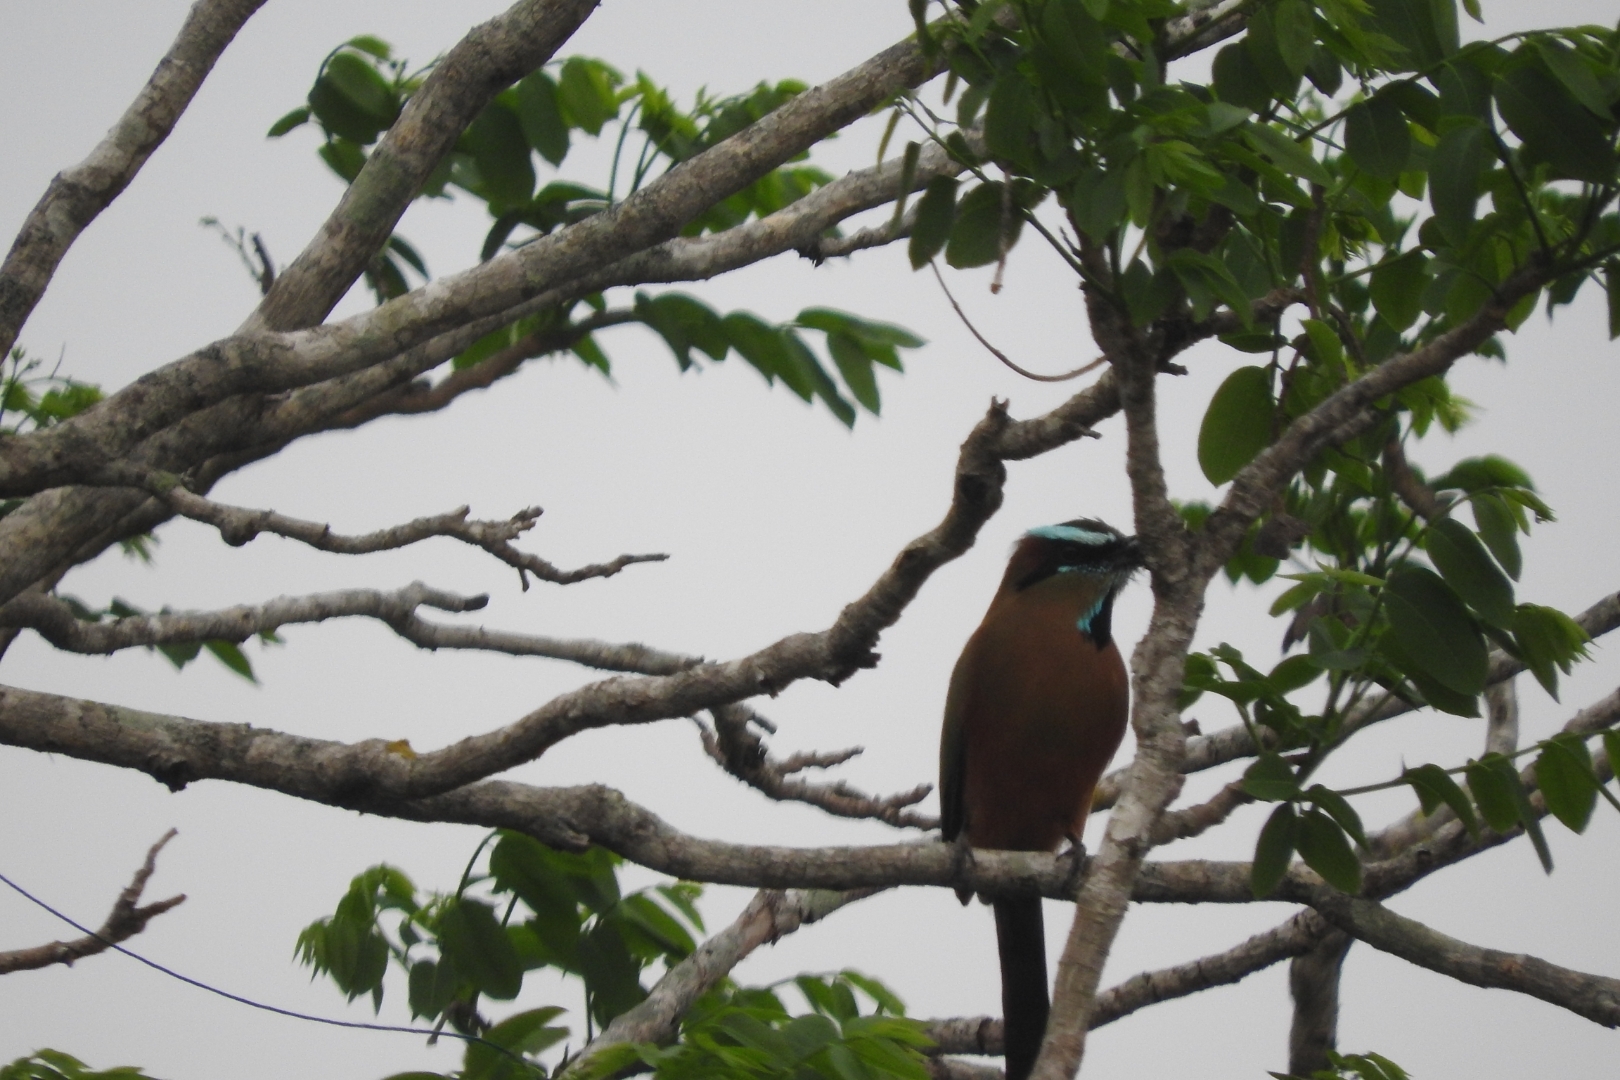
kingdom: Animalia
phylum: Chordata
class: Aves
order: Coraciiformes
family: Momotidae
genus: Eumomota
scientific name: Eumomota superciliosa
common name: Turquoise-browed motmot
